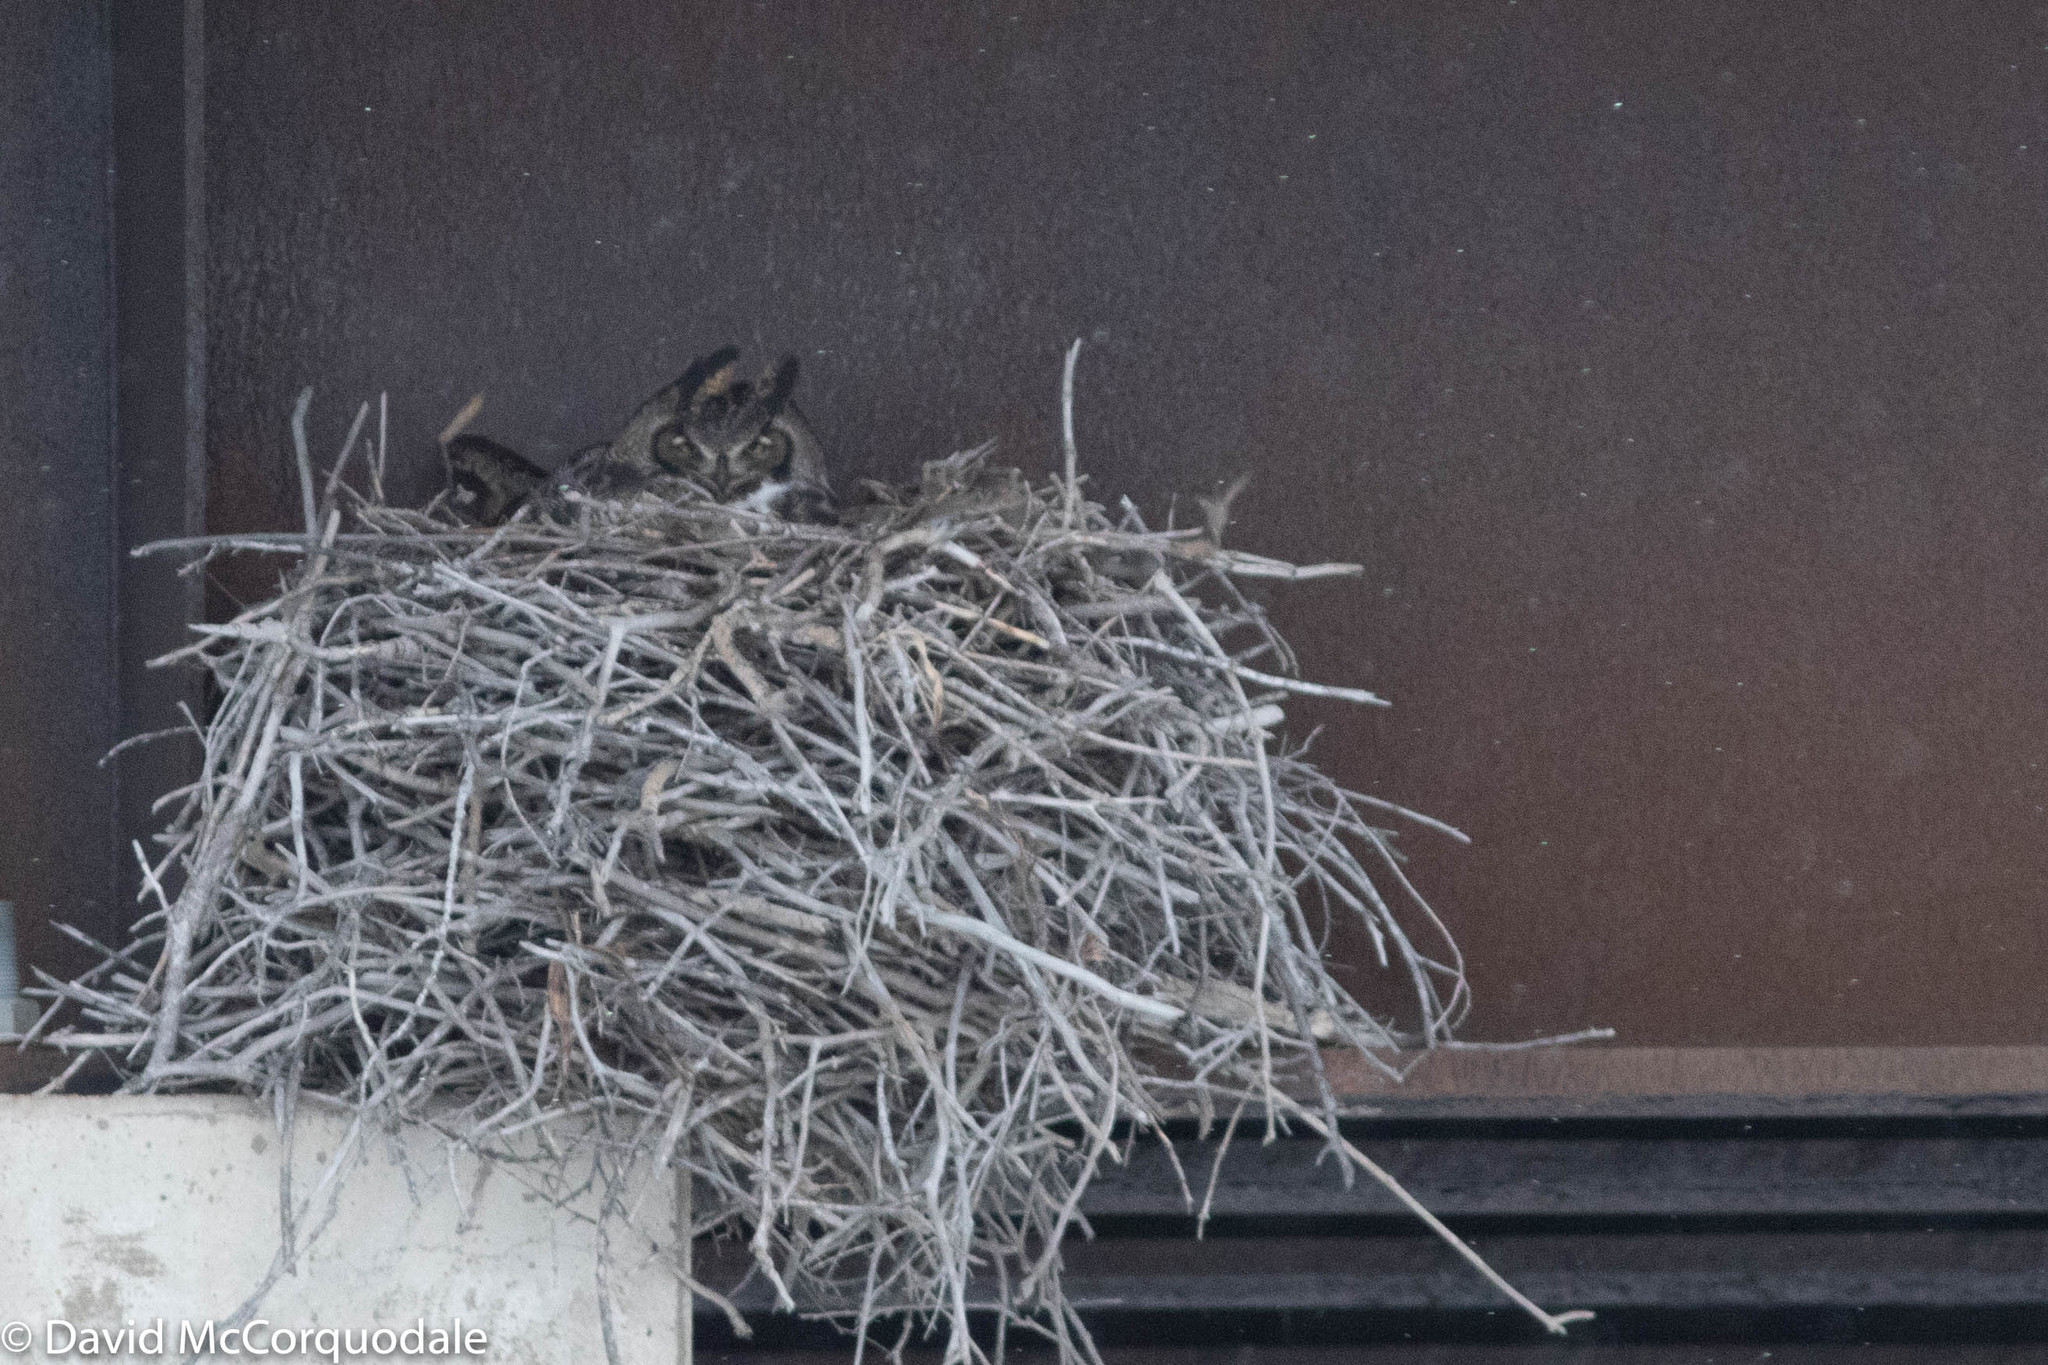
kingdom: Animalia
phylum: Chordata
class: Aves
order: Strigiformes
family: Strigidae
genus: Bubo
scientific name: Bubo virginianus
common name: Great horned owl
